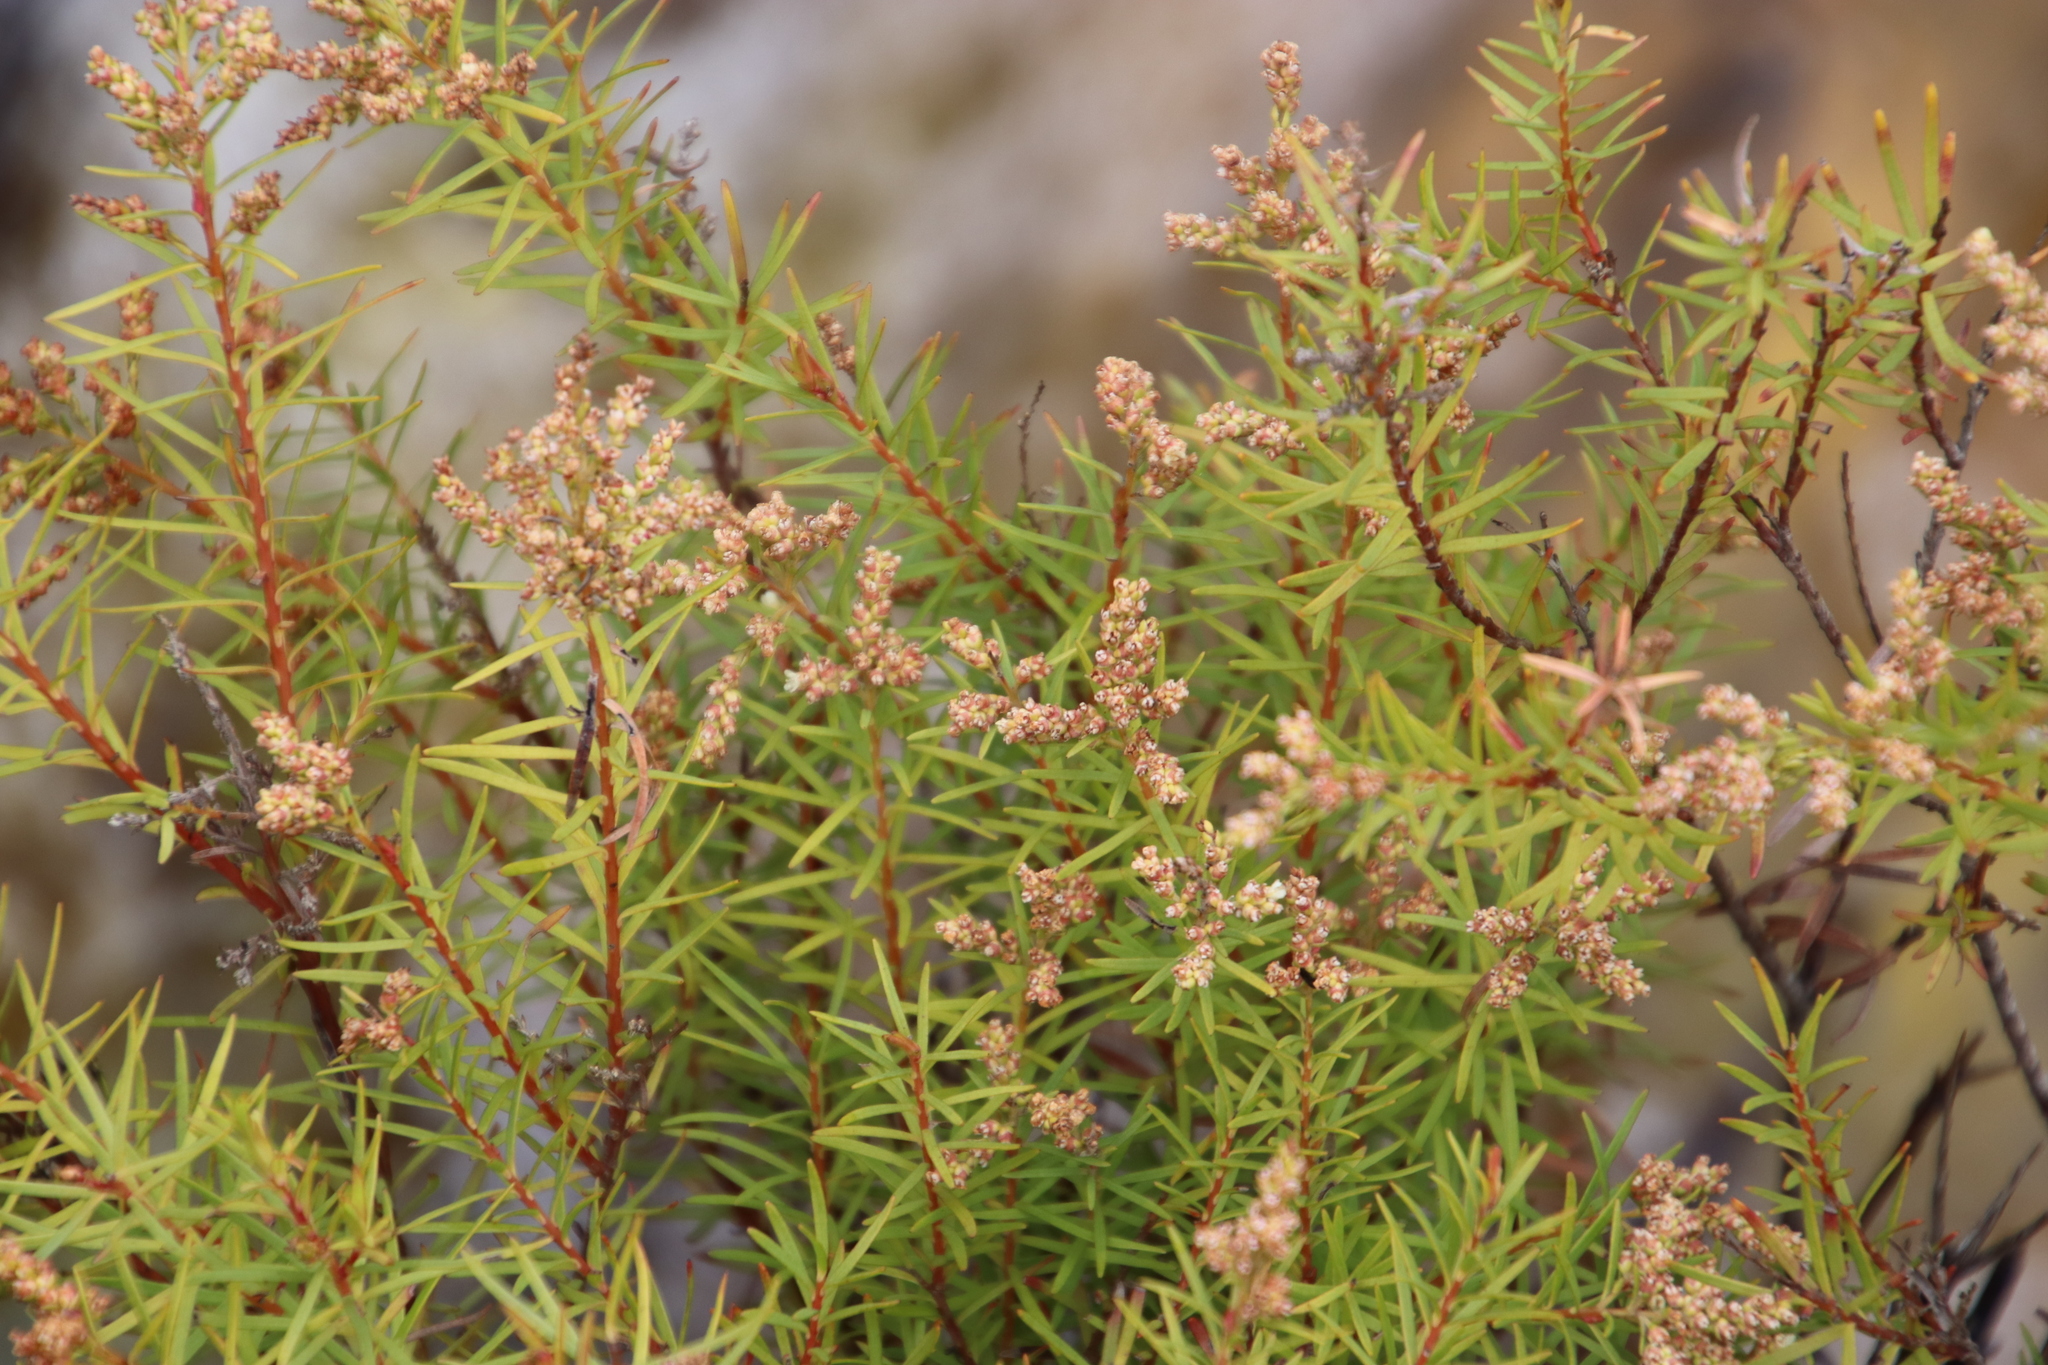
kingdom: Plantae
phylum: Tracheophyta
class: Magnoliopsida
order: Bruniales
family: Bruniaceae
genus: Brunia
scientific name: Brunia africana
